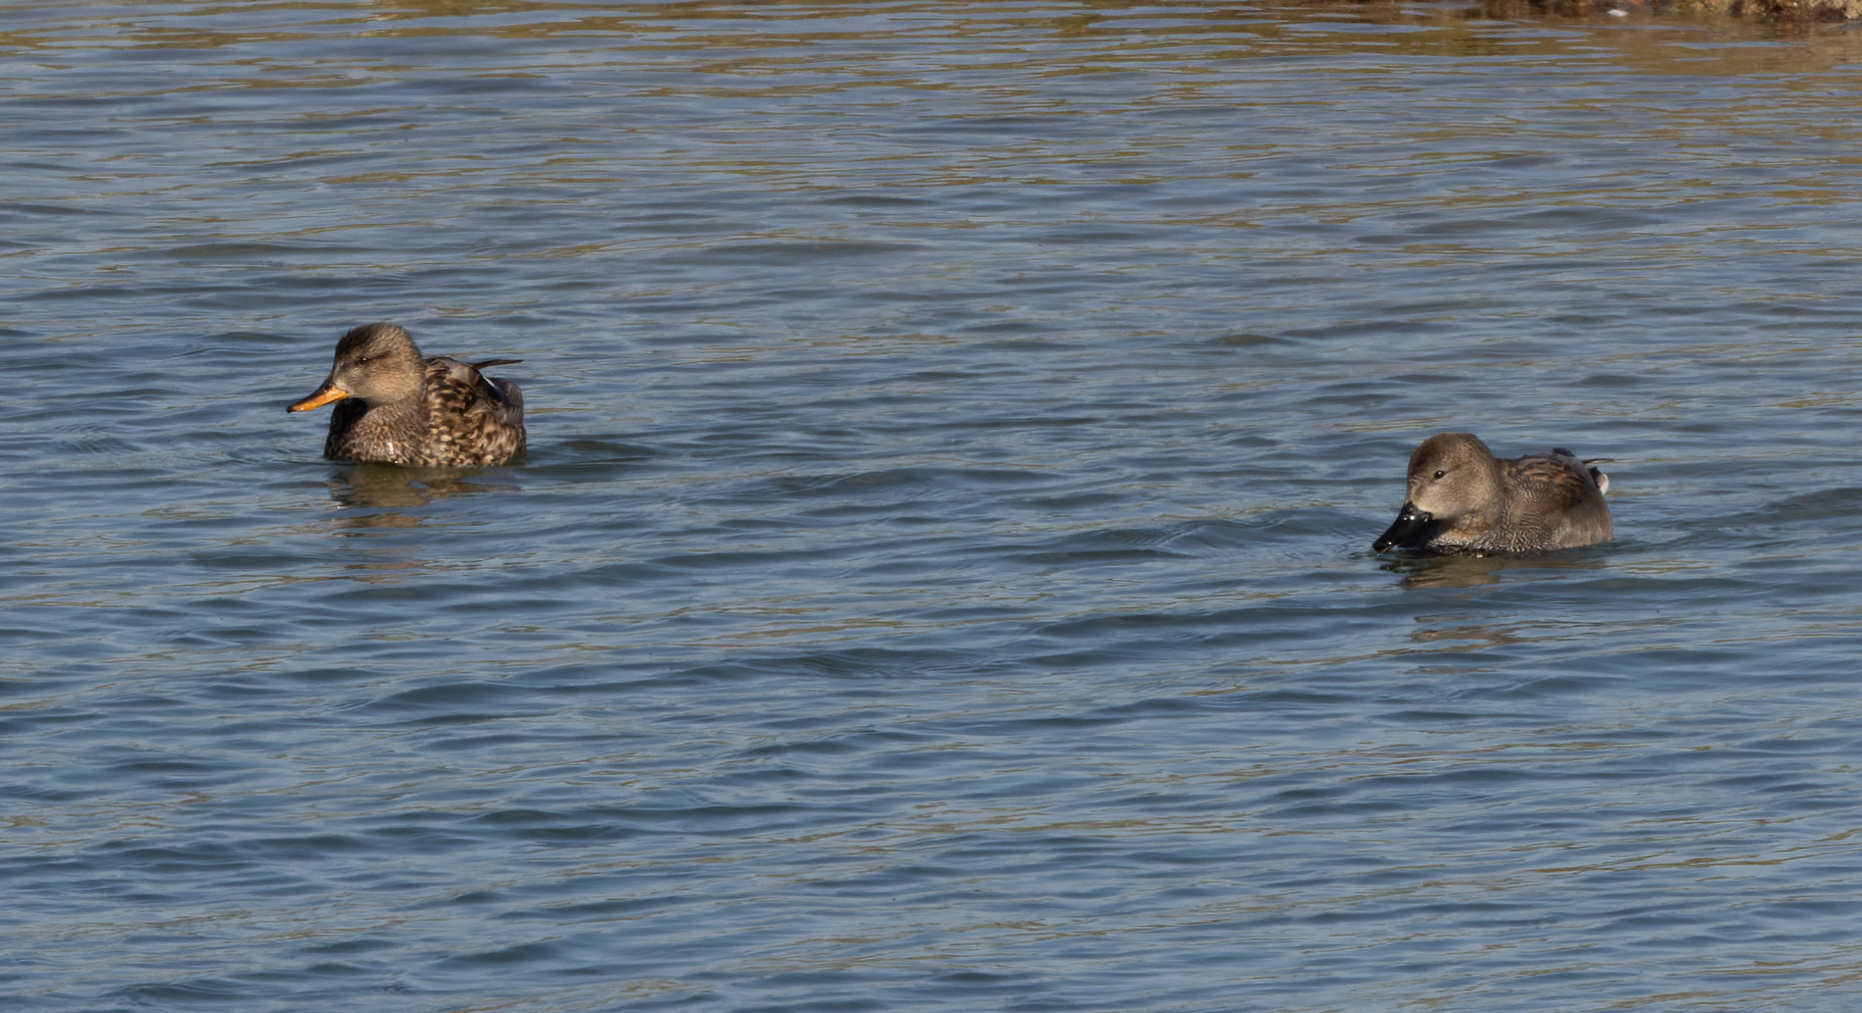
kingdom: Animalia
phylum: Chordata
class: Aves
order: Anseriformes
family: Anatidae
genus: Mareca
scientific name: Mareca strepera
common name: Gadwall
